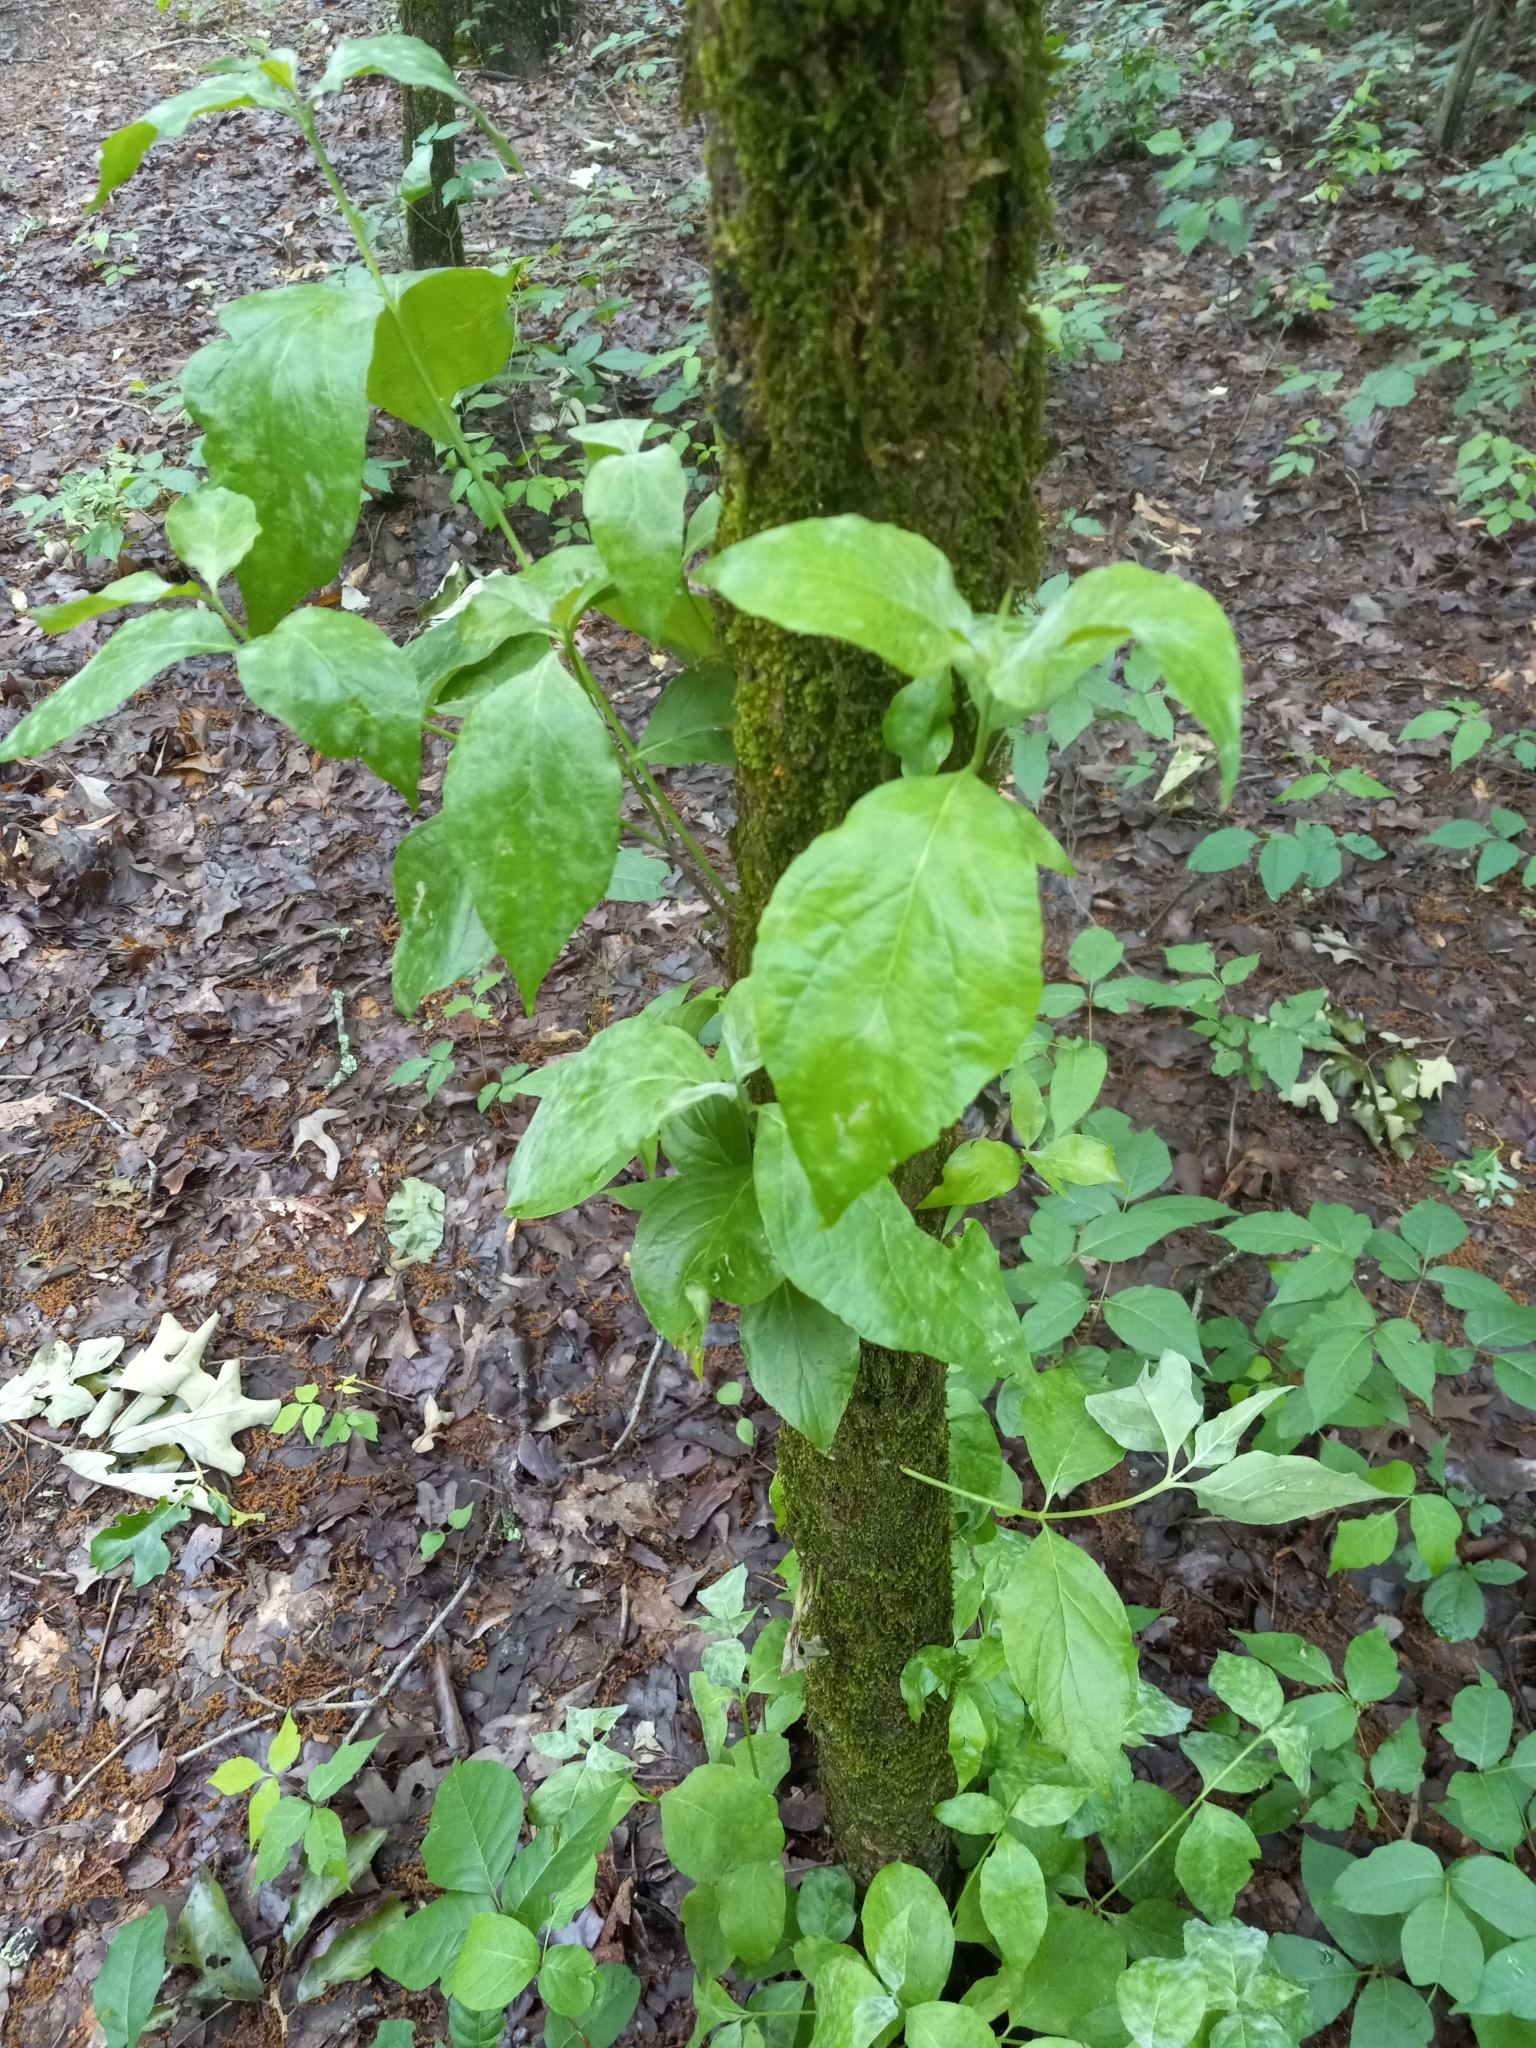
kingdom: Plantae
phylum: Tracheophyta
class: Magnoliopsida
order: Cornales
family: Cornaceae
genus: Cornus
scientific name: Cornus florida
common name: Flowering dogwood
